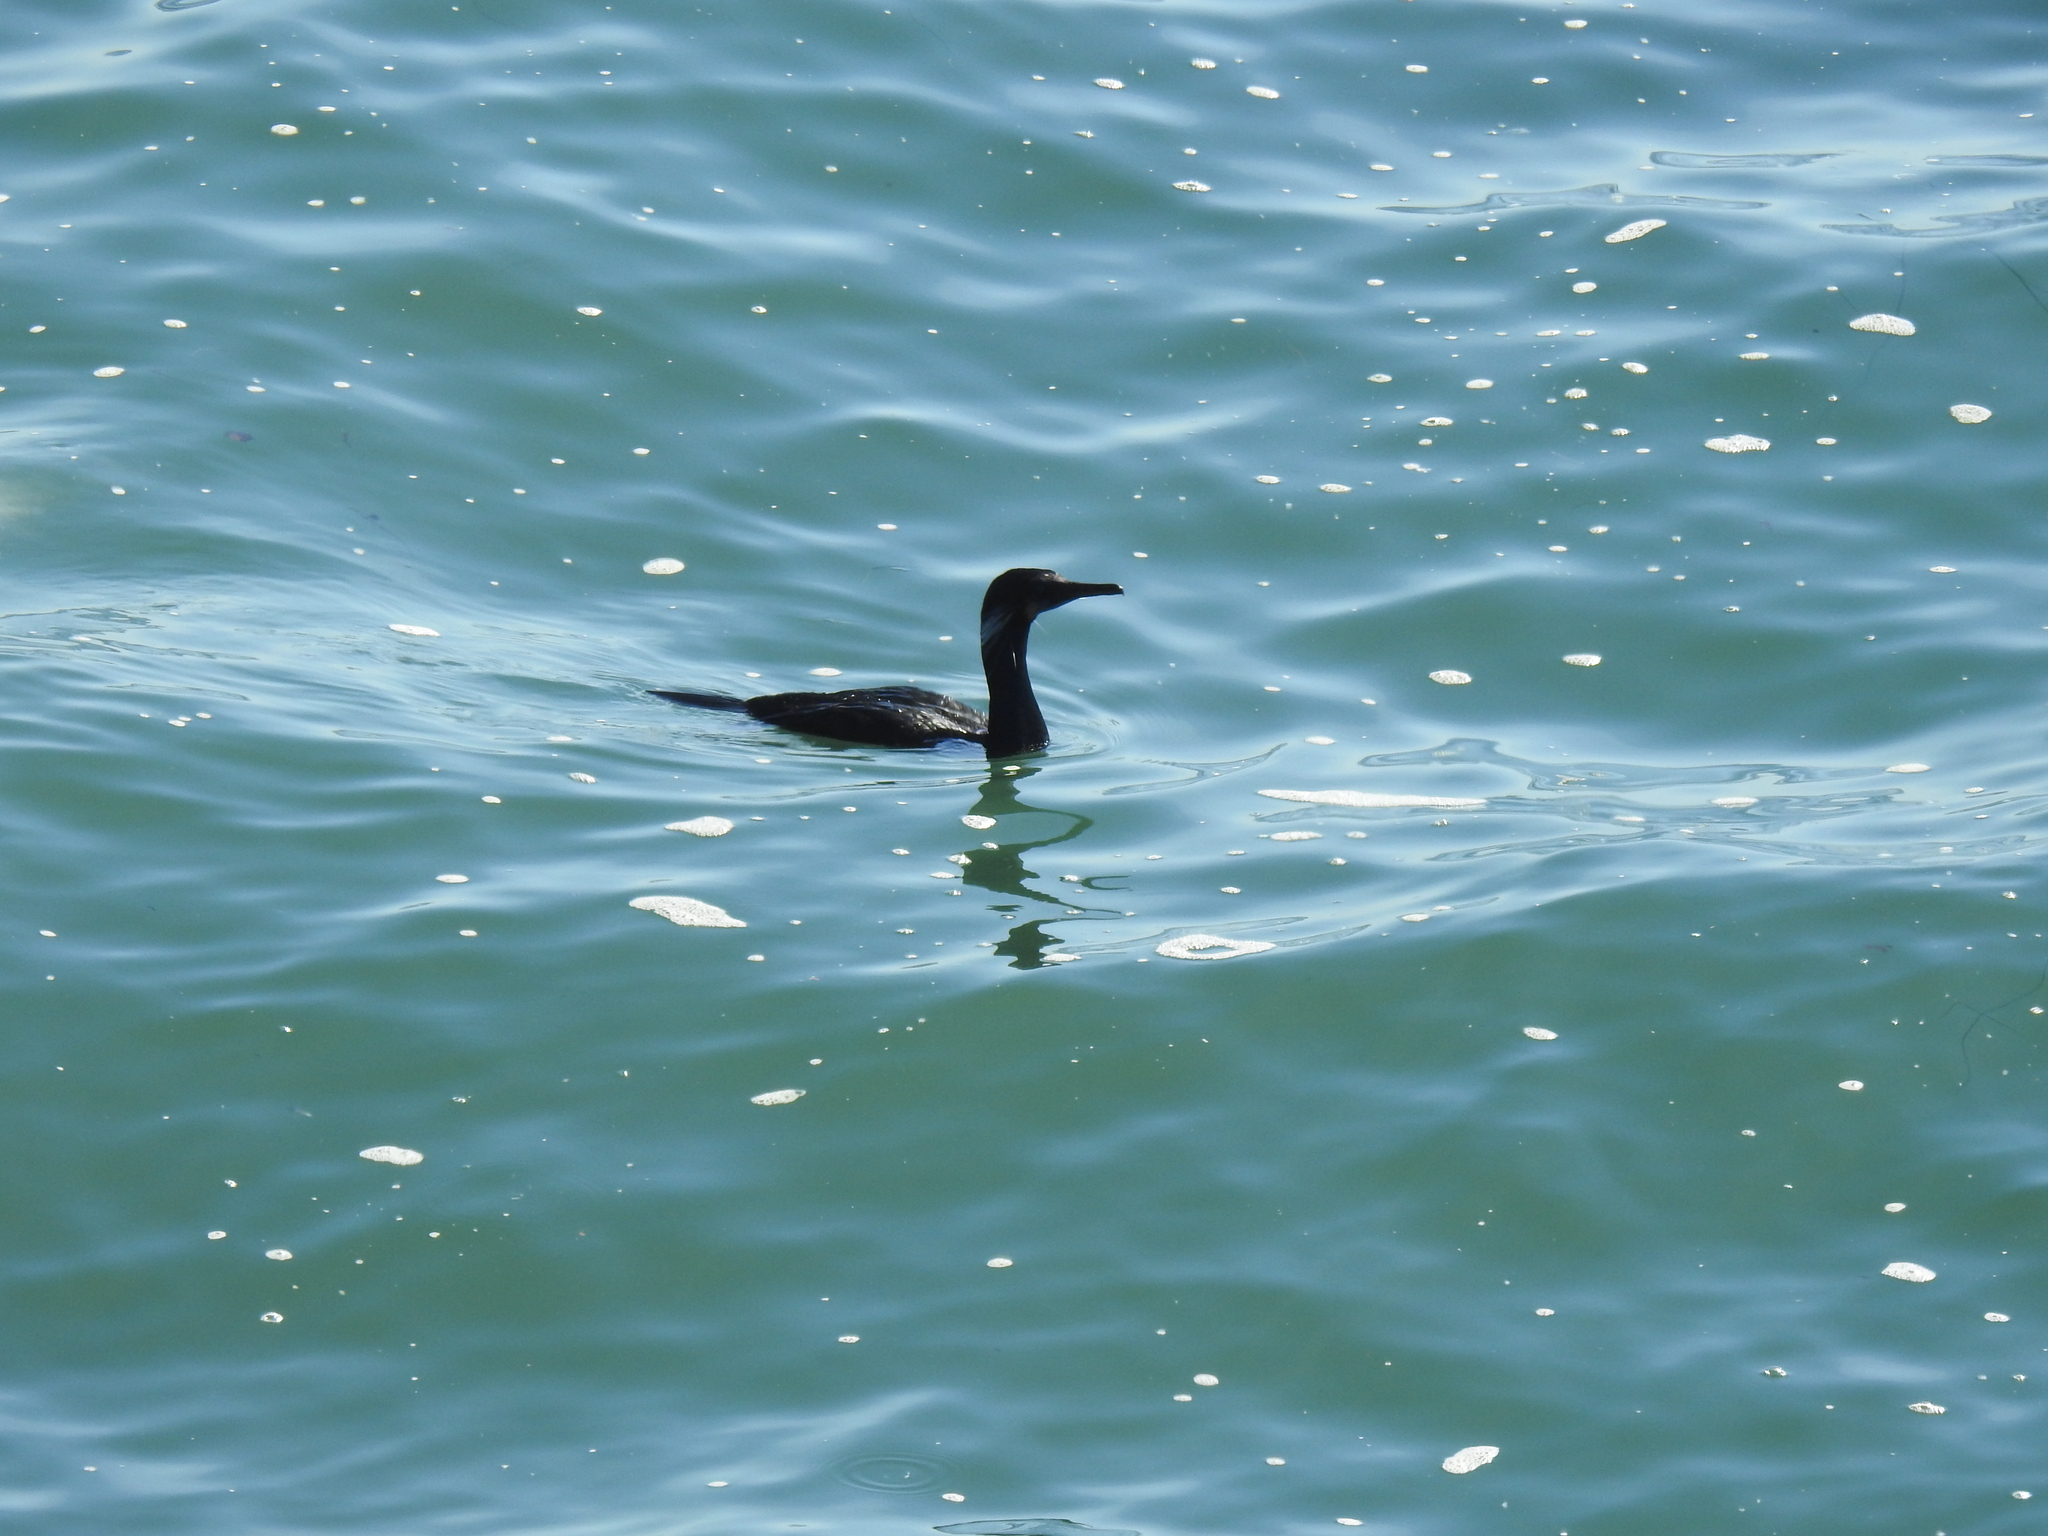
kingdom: Animalia
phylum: Chordata
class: Aves
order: Suliformes
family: Phalacrocoracidae
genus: Urile
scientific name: Urile penicillatus
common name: Brandt's cormorant
